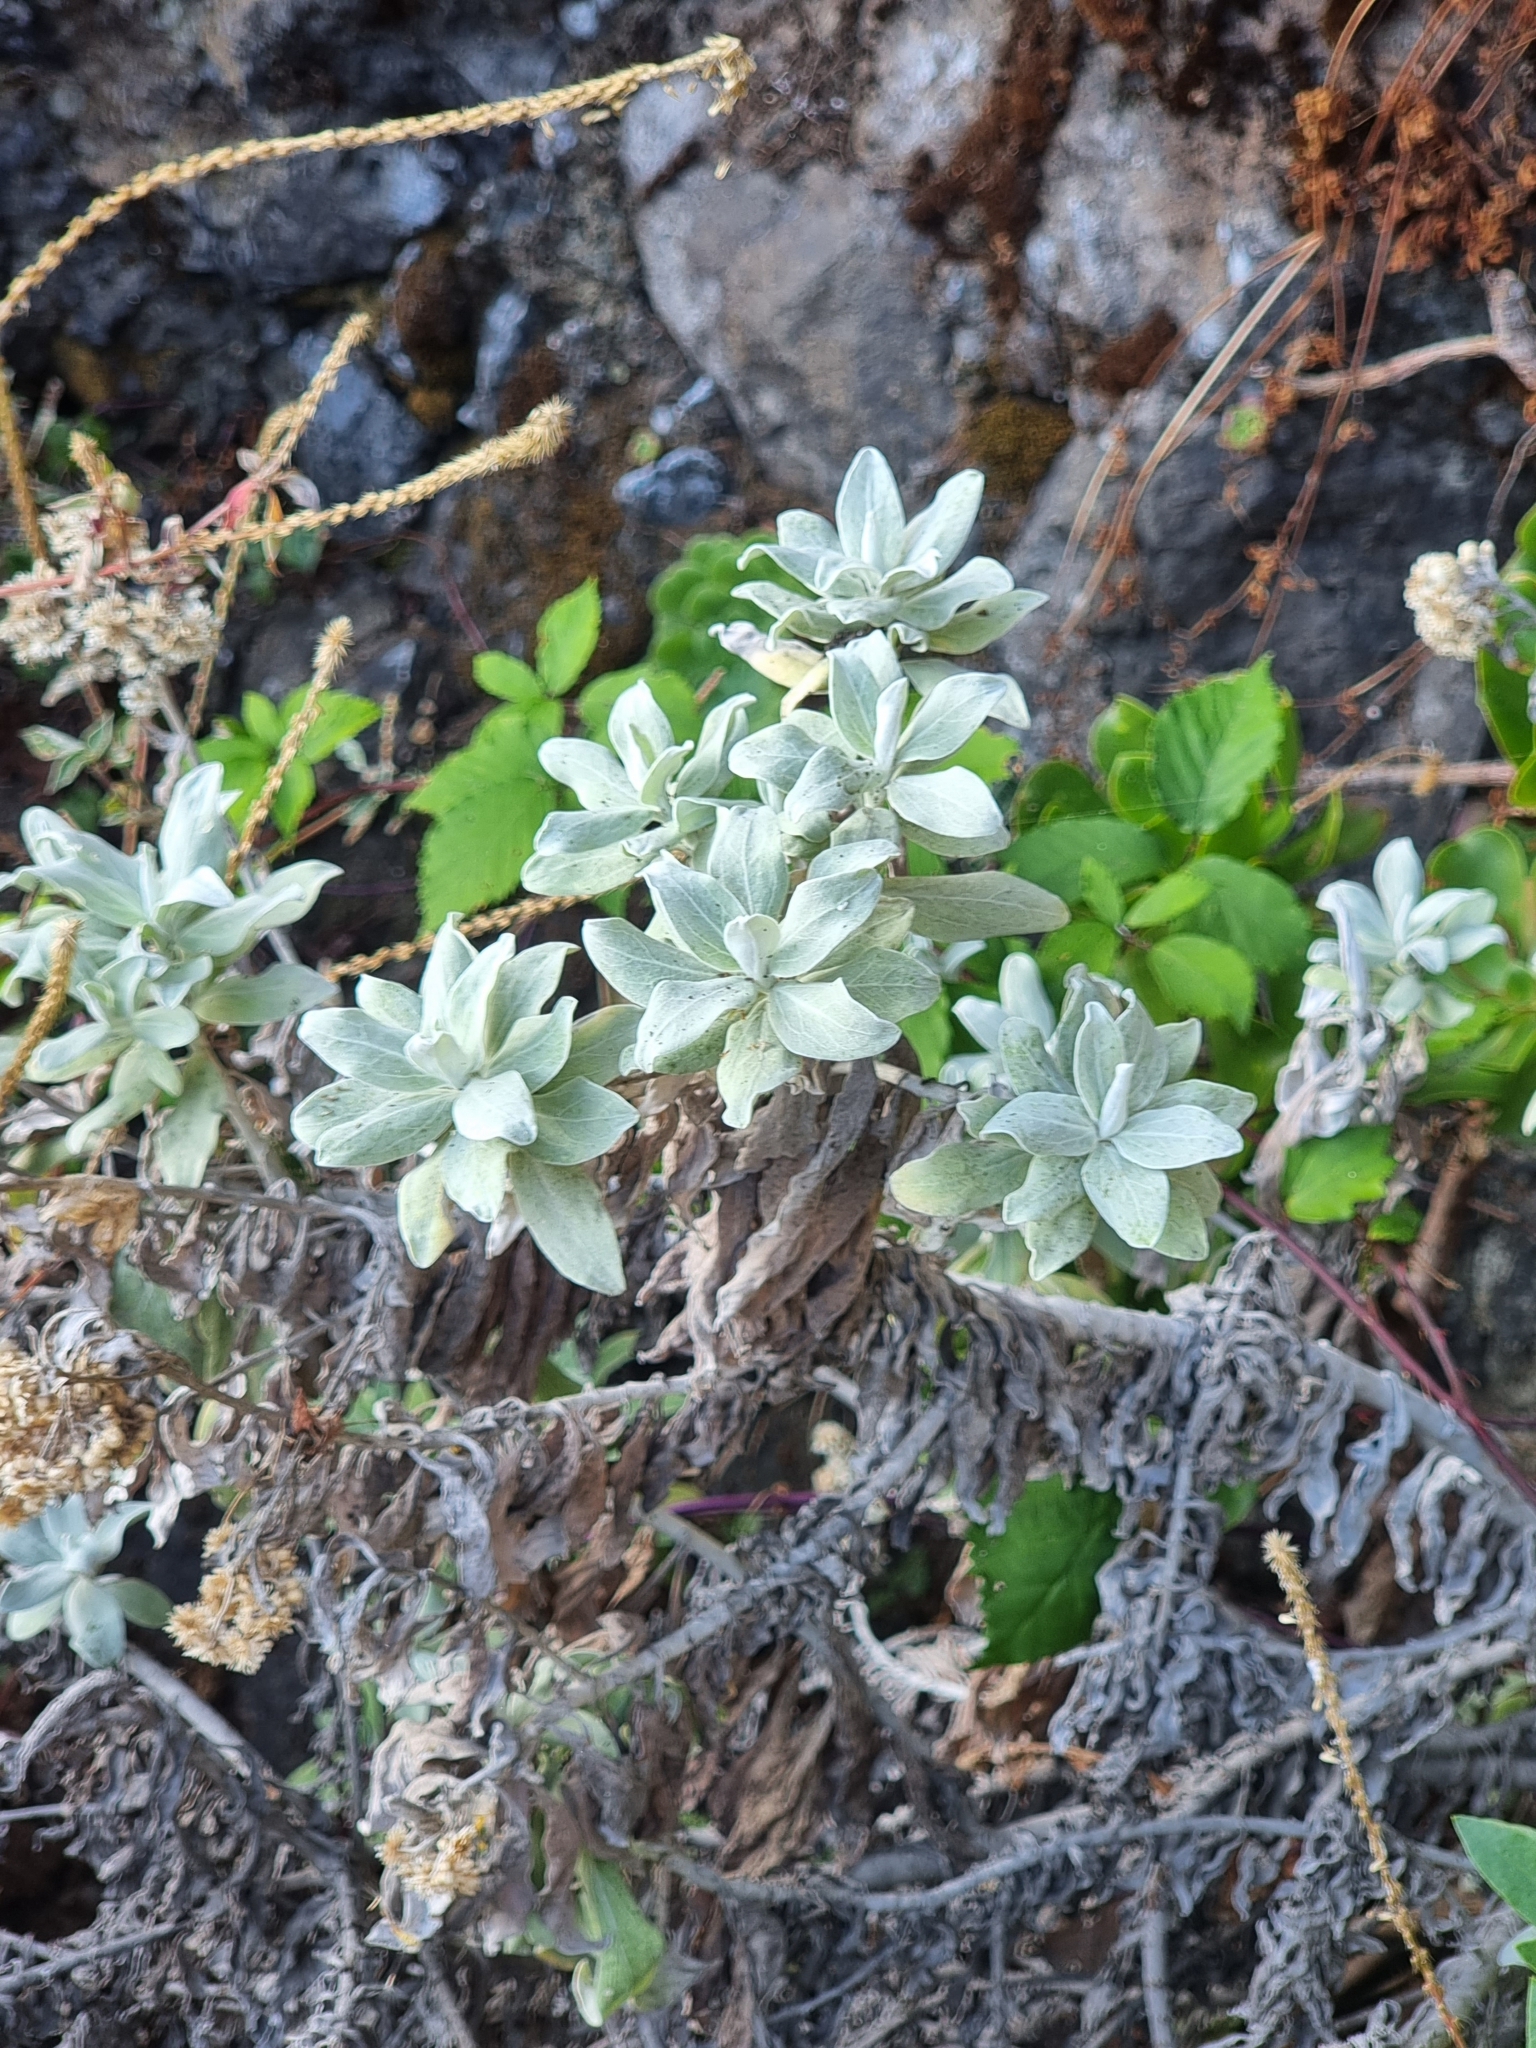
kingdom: Plantae
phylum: Tracheophyta
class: Magnoliopsida
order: Asterales
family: Asteraceae
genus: Helichrysum
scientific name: Helichrysum melaleucum
